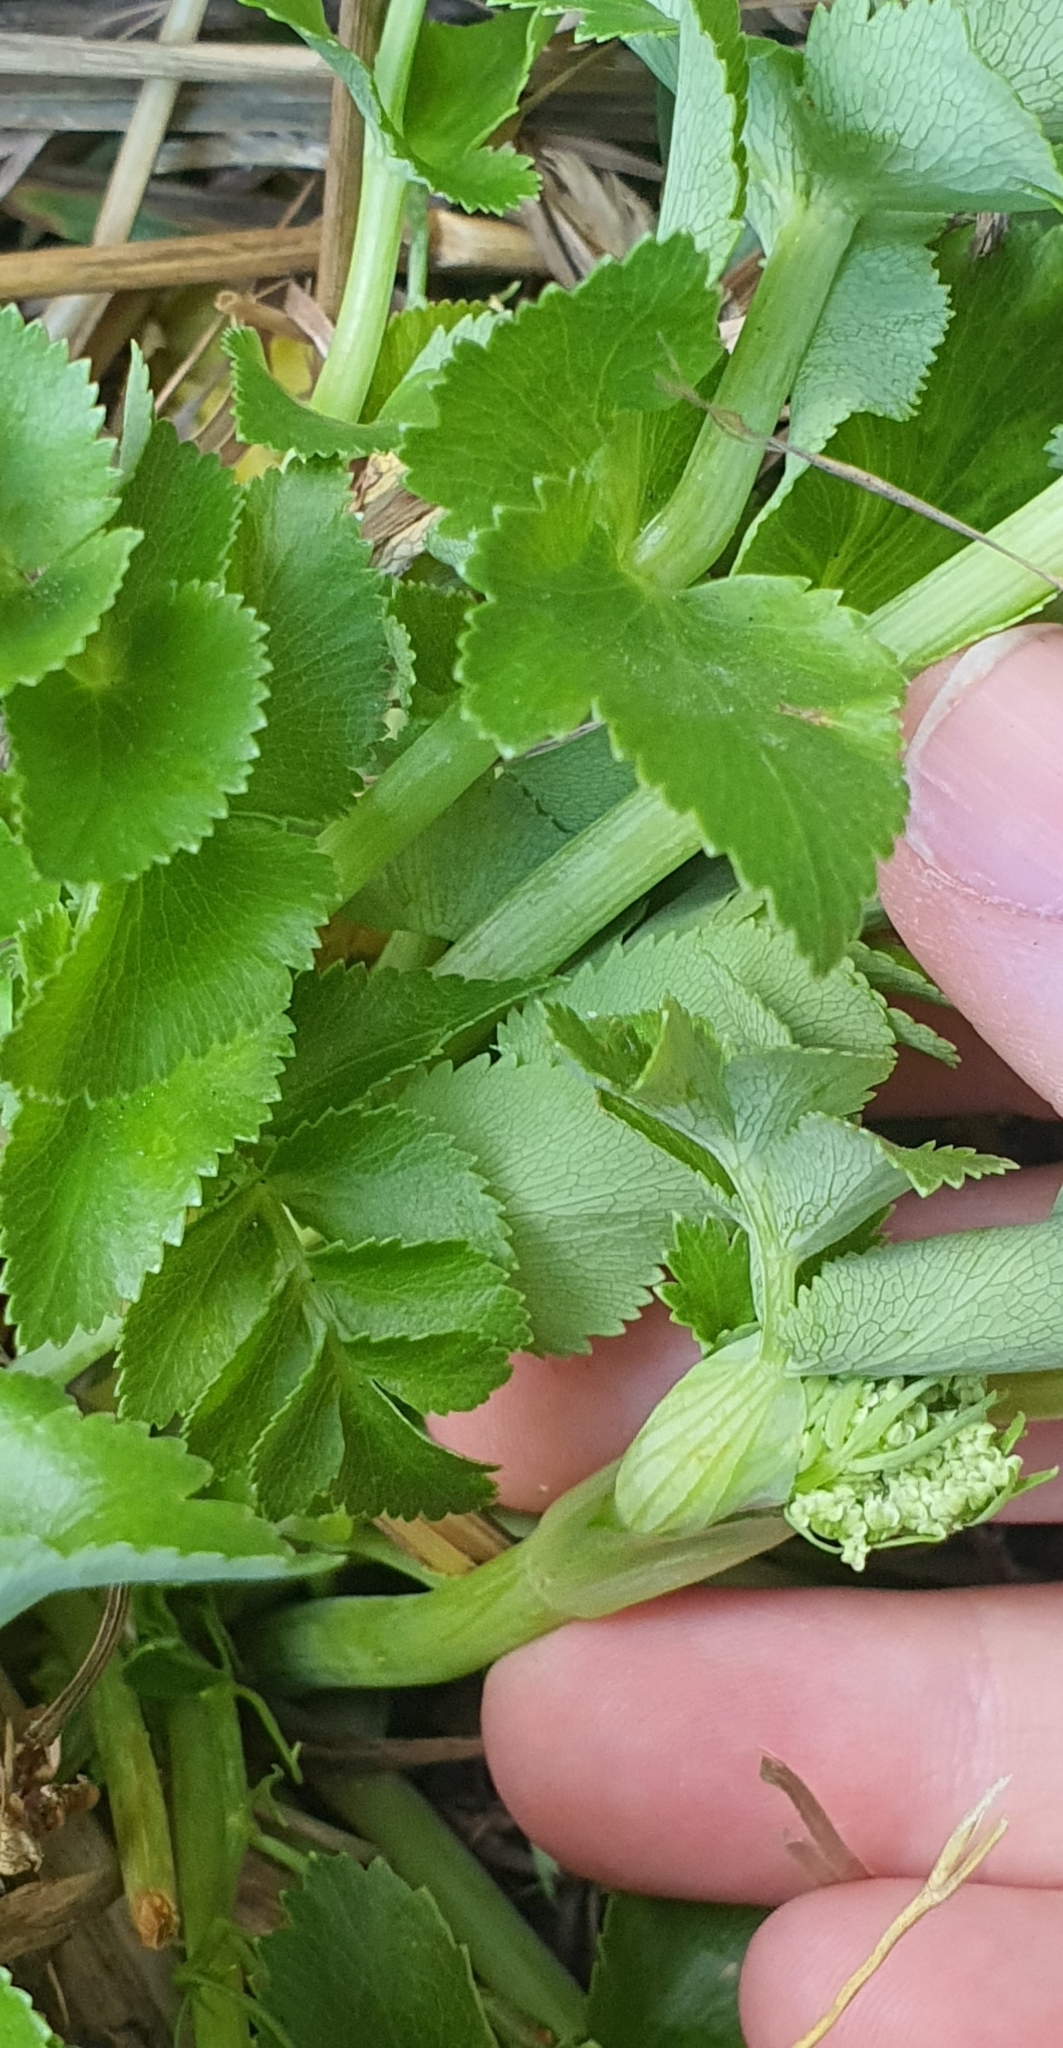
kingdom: Plantae
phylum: Tracheophyta
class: Magnoliopsida
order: Apiales
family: Apiaceae
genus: Gingidia
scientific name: Gingidia montana
